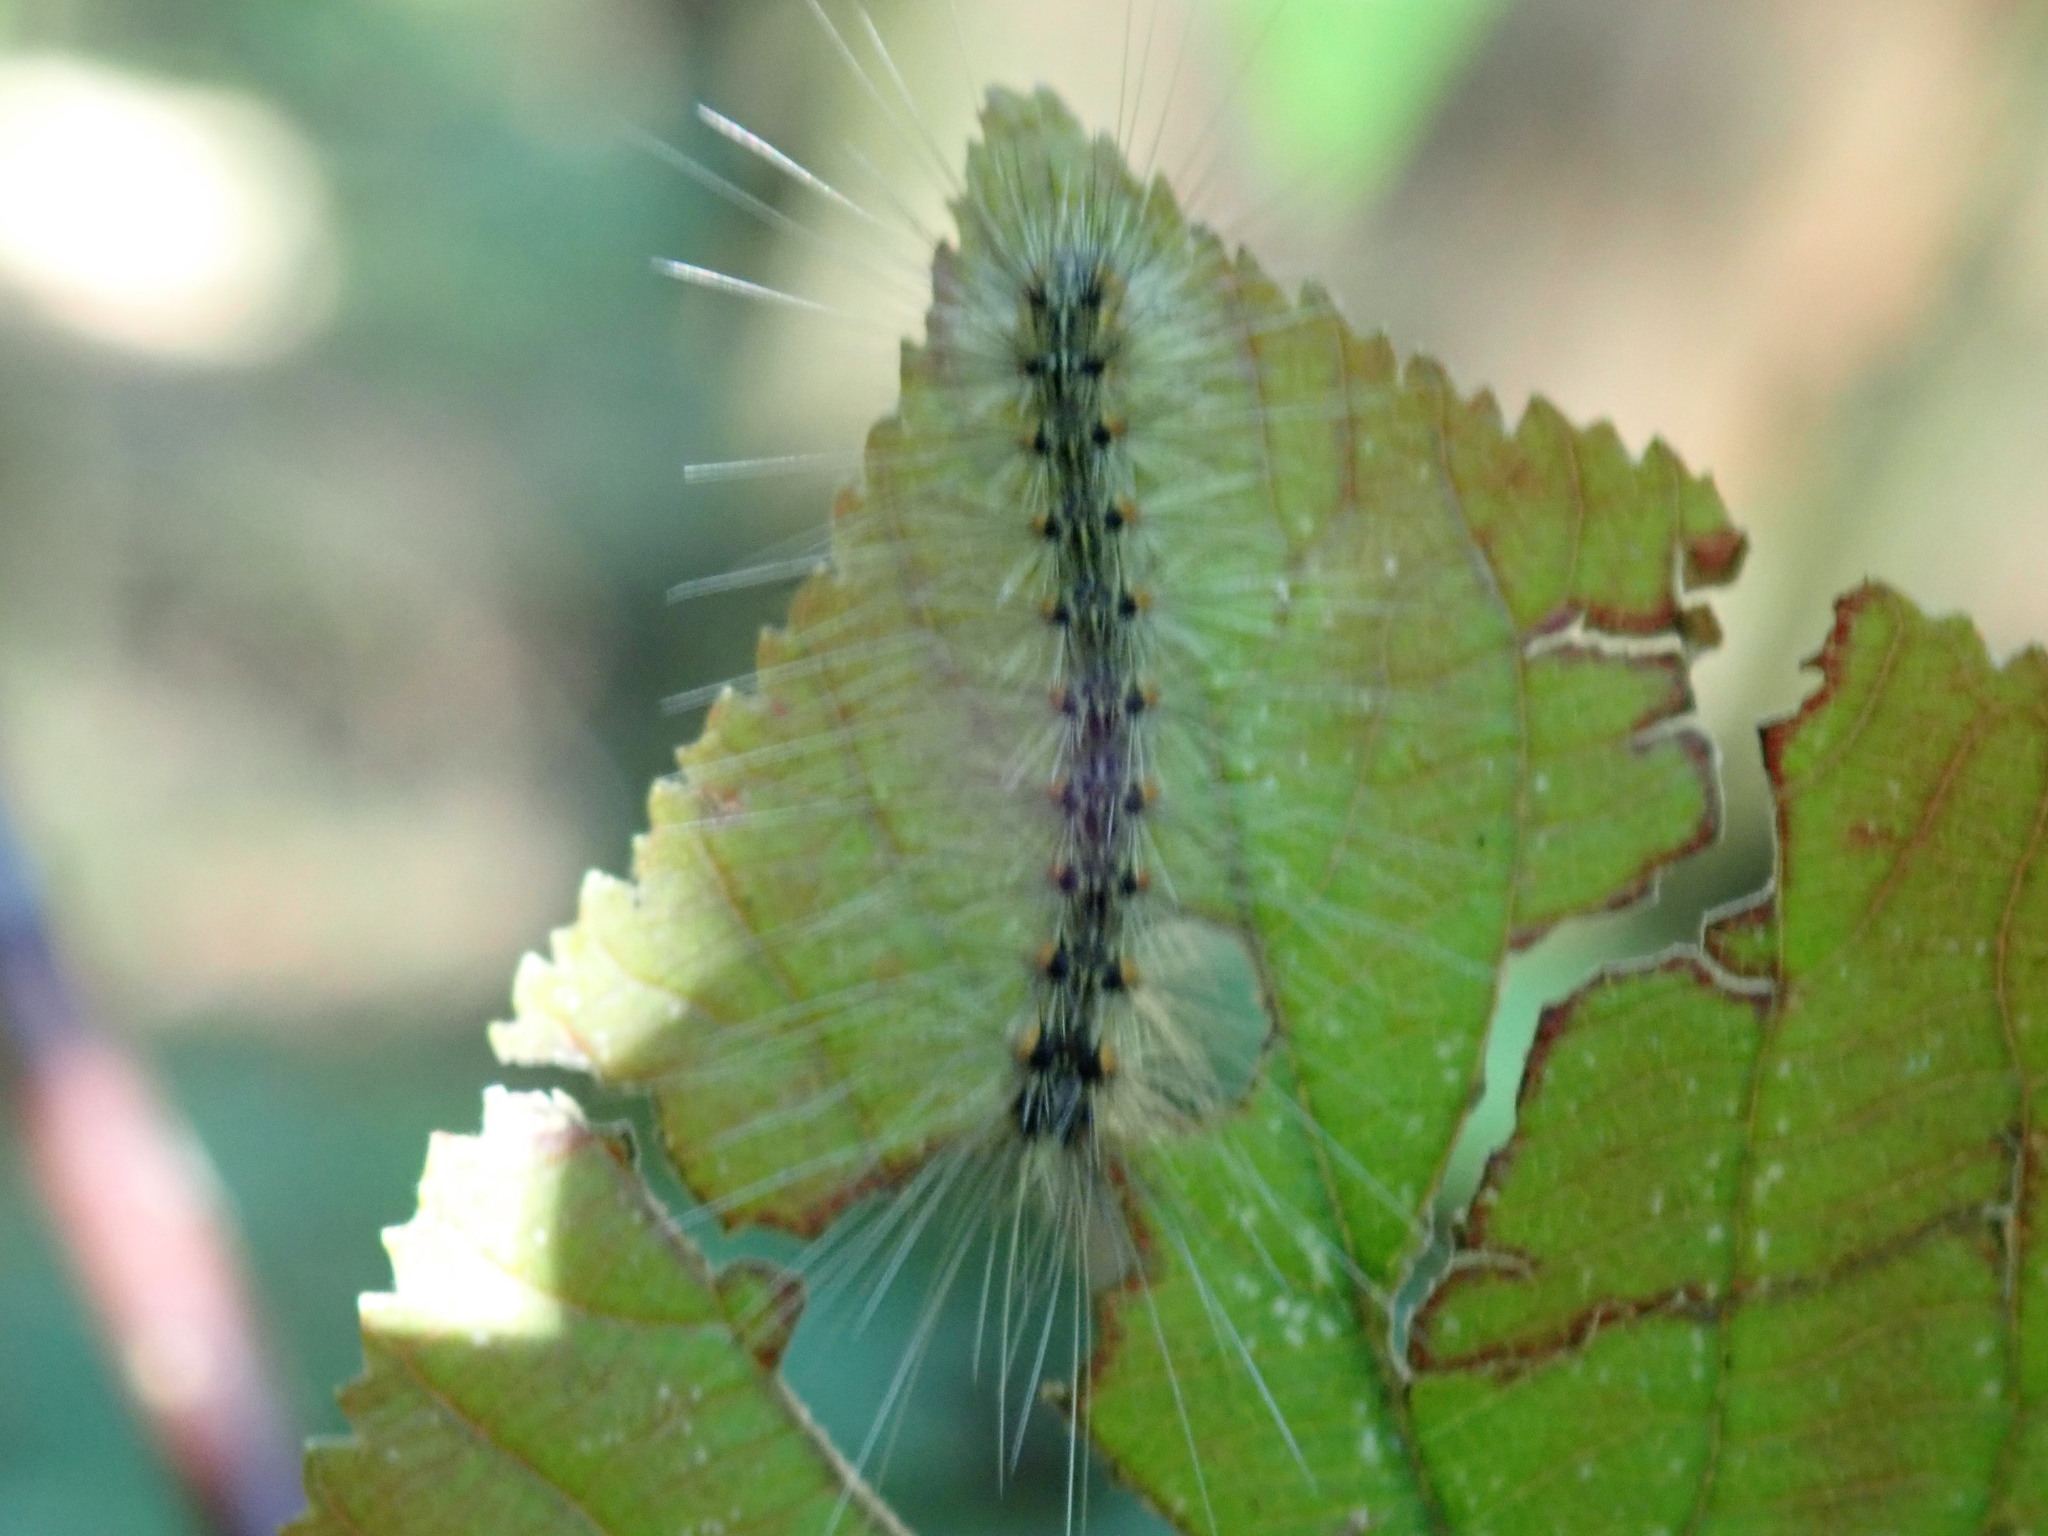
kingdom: Animalia
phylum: Arthropoda
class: Insecta
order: Lepidoptera
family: Erebidae
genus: Hyphantria
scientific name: Hyphantria cunea
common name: American white moth
